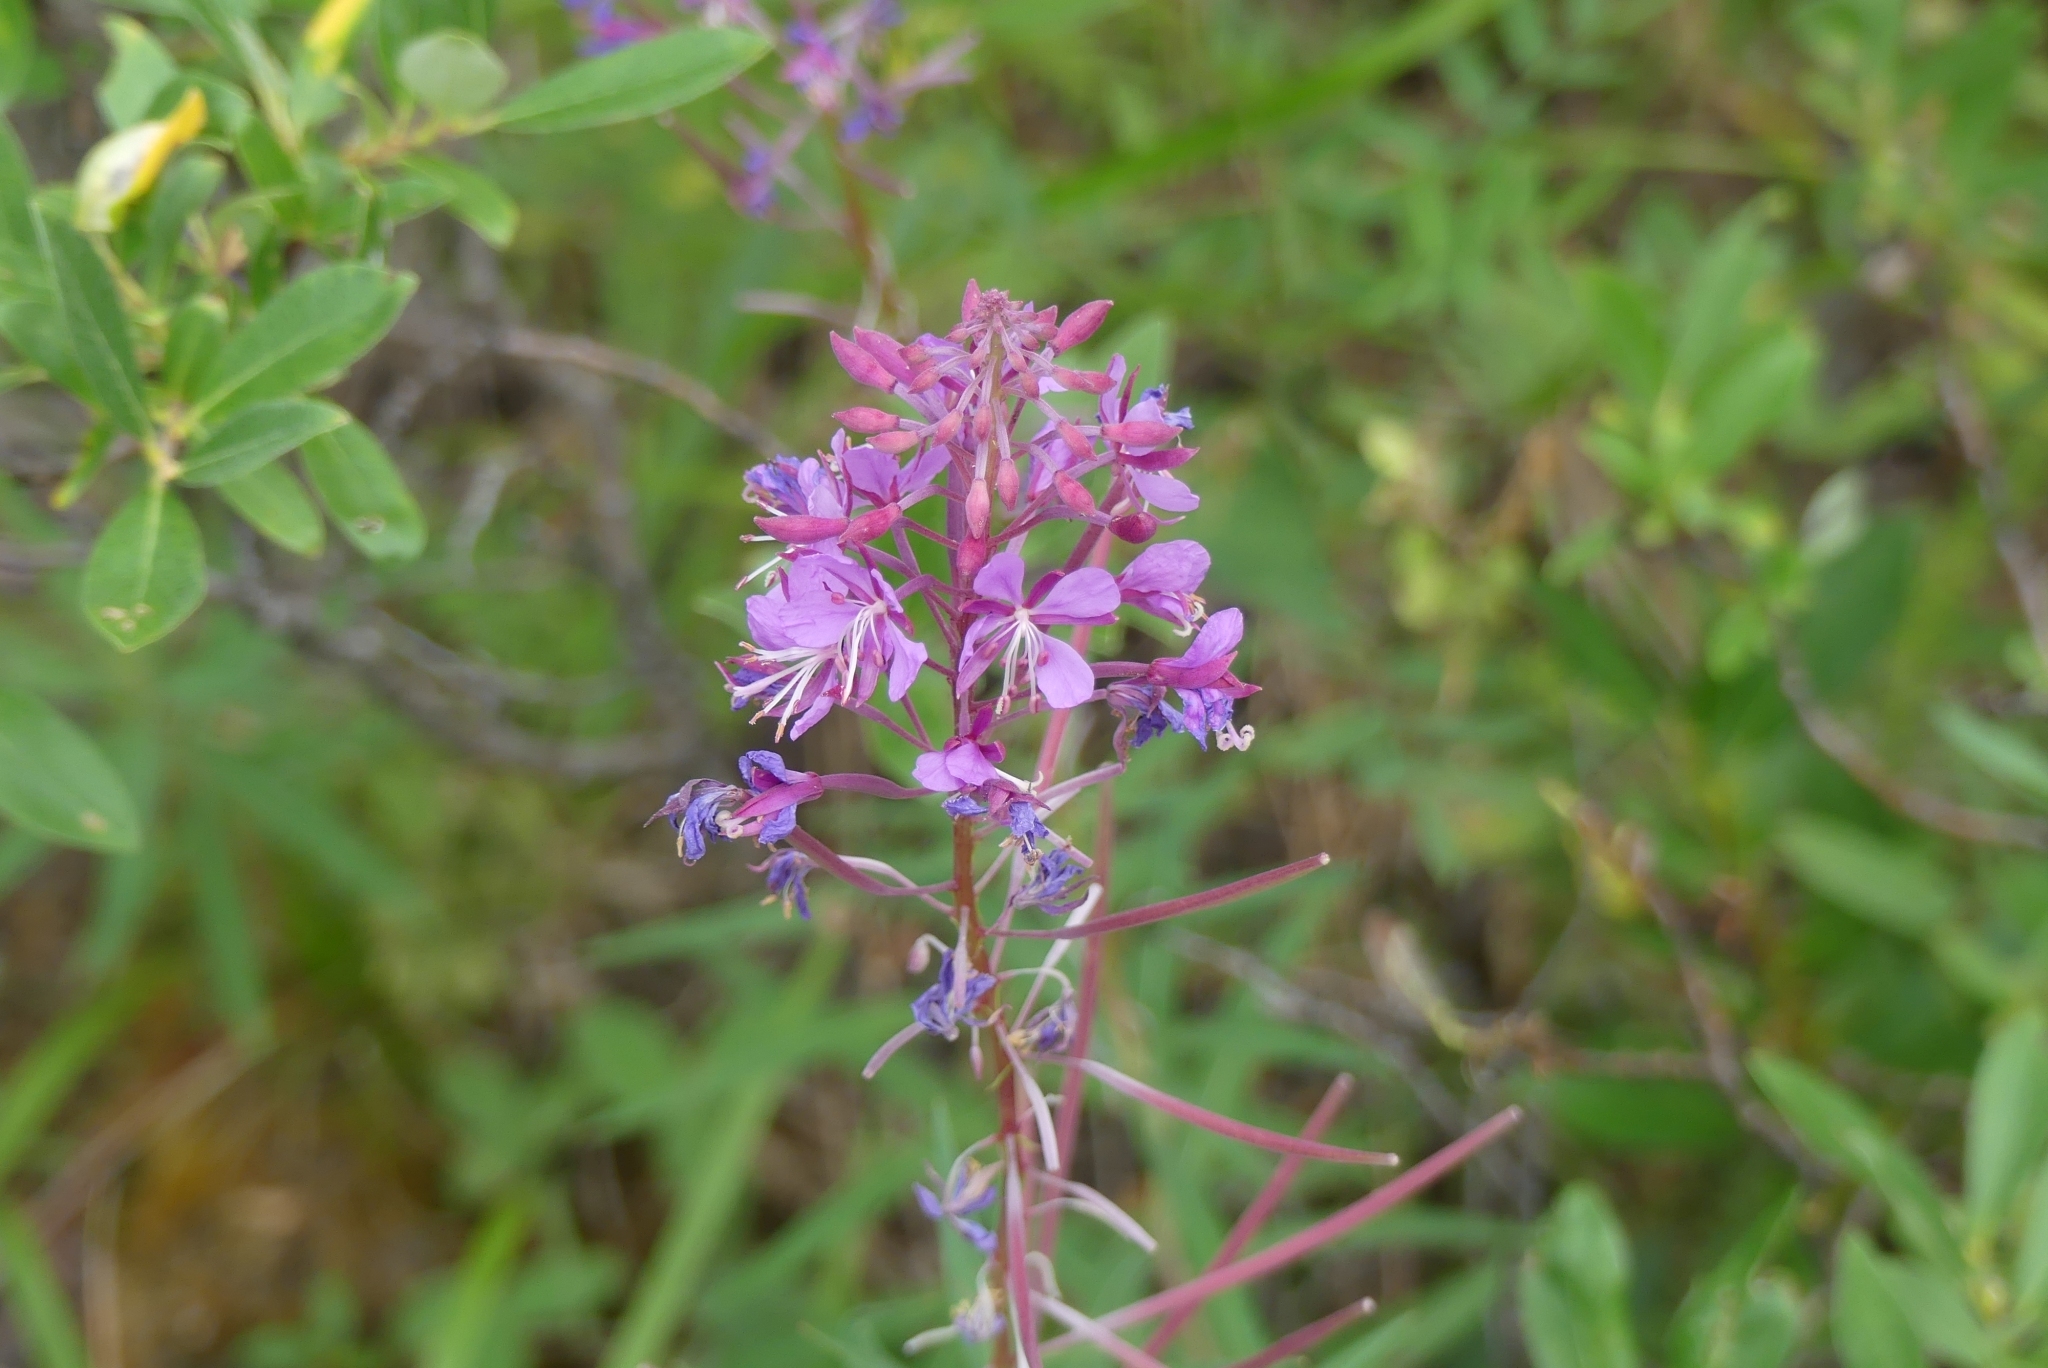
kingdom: Plantae
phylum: Tracheophyta
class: Magnoliopsida
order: Myrtales
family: Onagraceae
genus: Chamaenerion
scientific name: Chamaenerion angustifolium
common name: Fireweed
